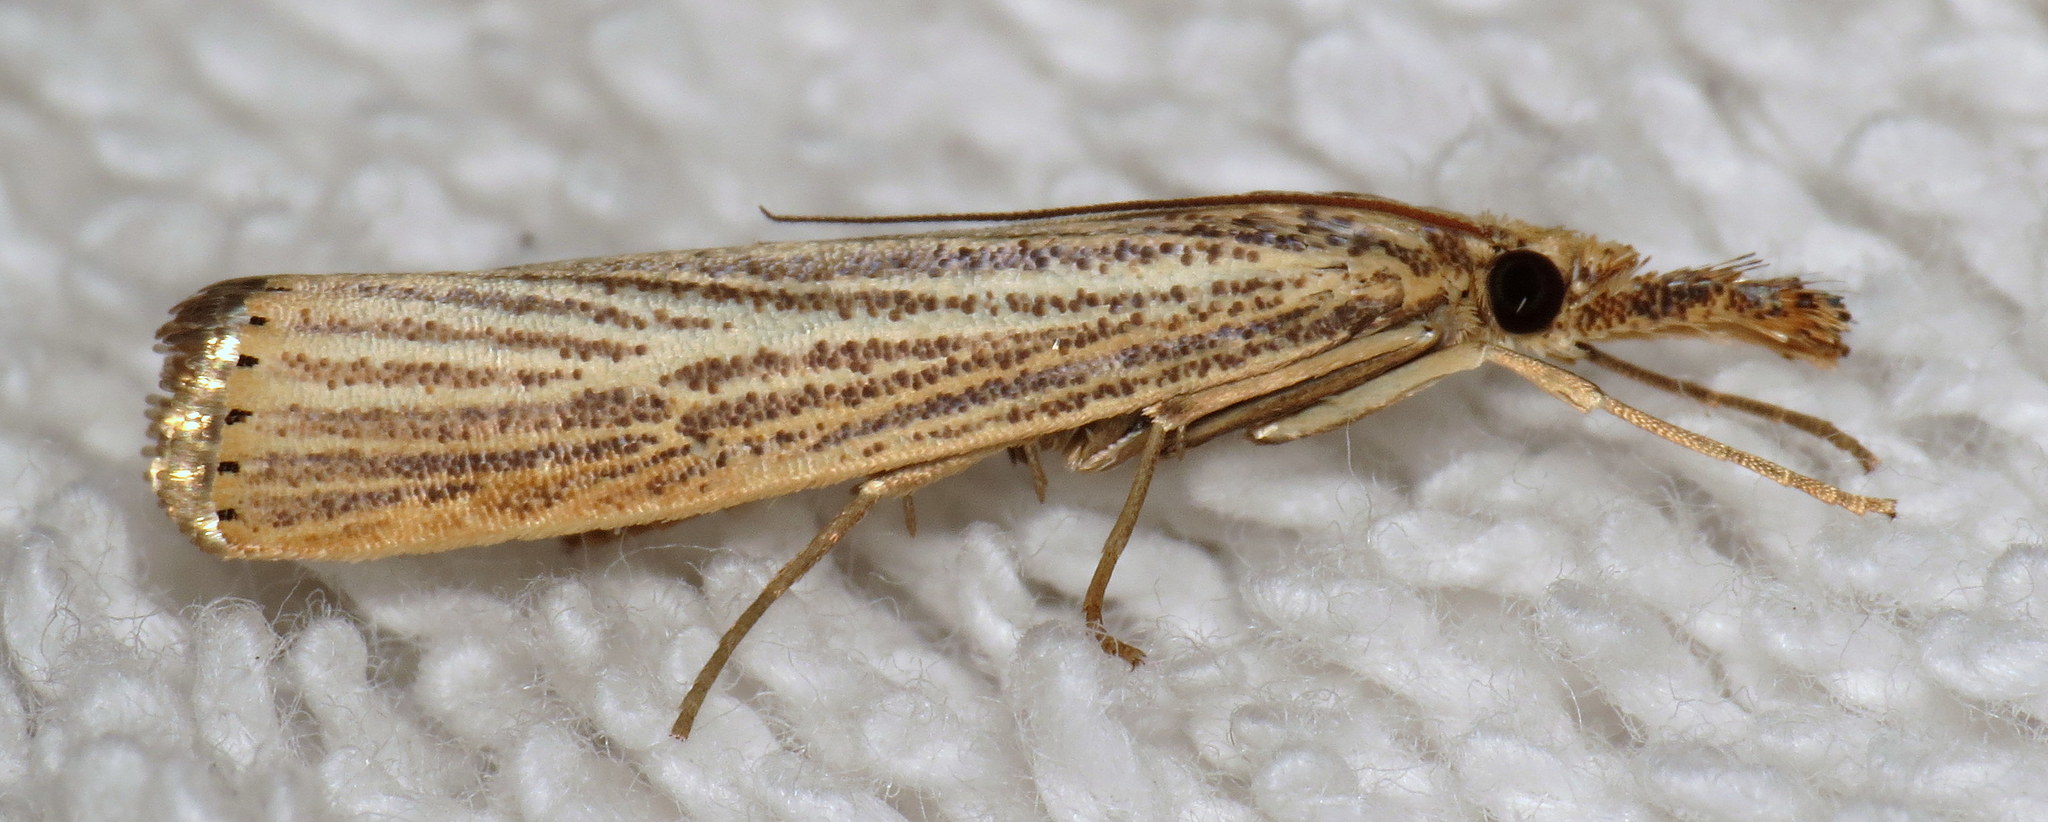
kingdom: Animalia
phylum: Arthropoda
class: Insecta
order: Lepidoptera
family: Crambidae
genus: Agriphila
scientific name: Agriphila vulgivagellus
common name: Vagabond crambus moth
